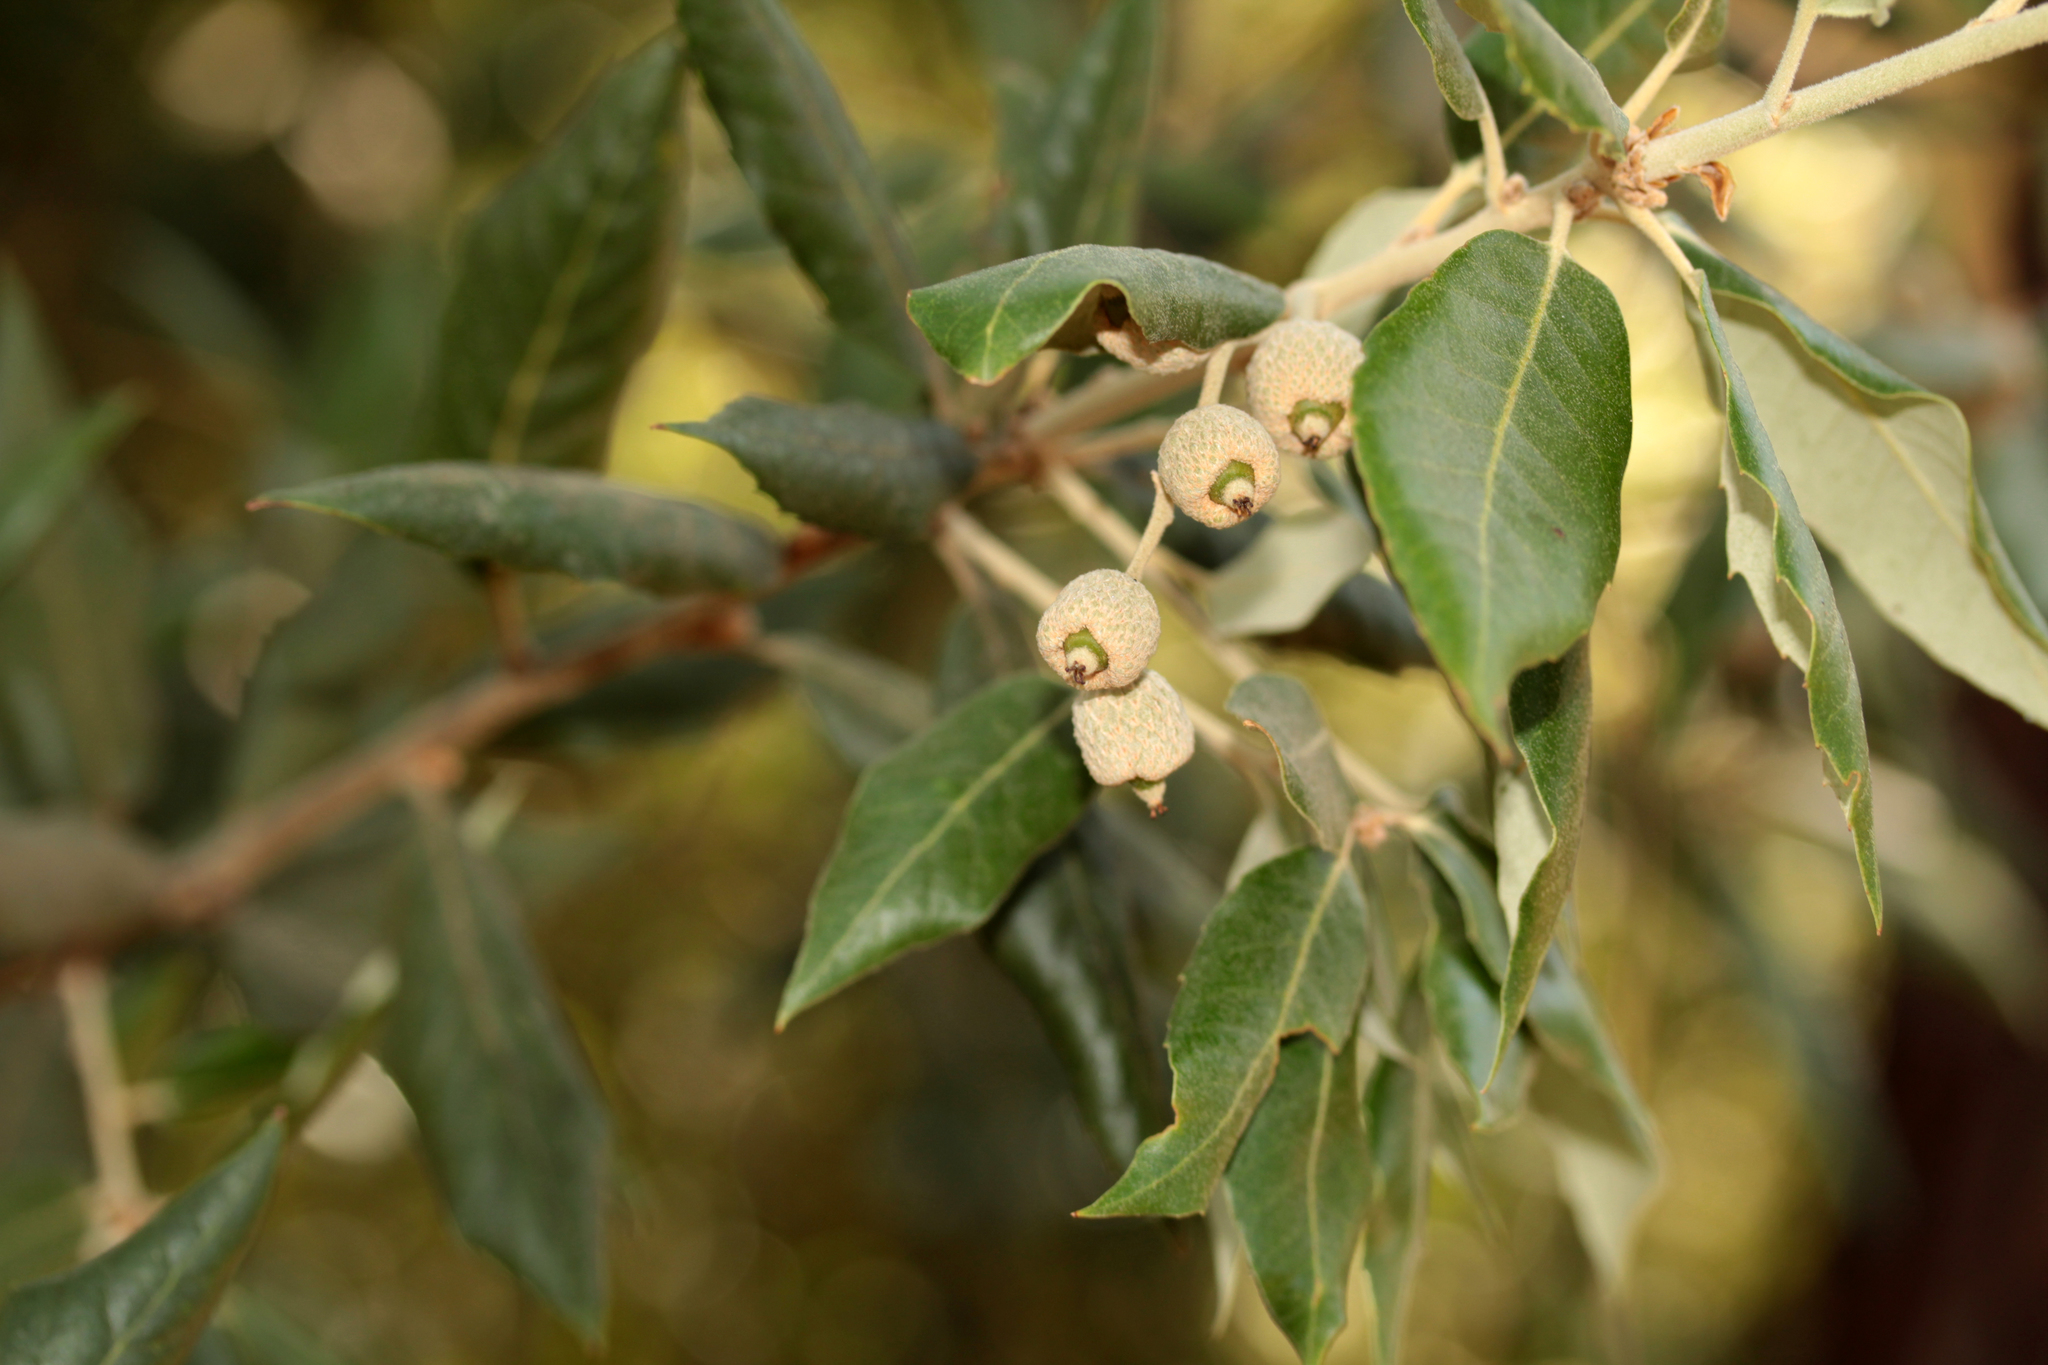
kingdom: Plantae
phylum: Tracheophyta
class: Magnoliopsida
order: Fagales
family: Fagaceae
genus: Quercus
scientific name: Quercus ilex
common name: Evergreen oak
